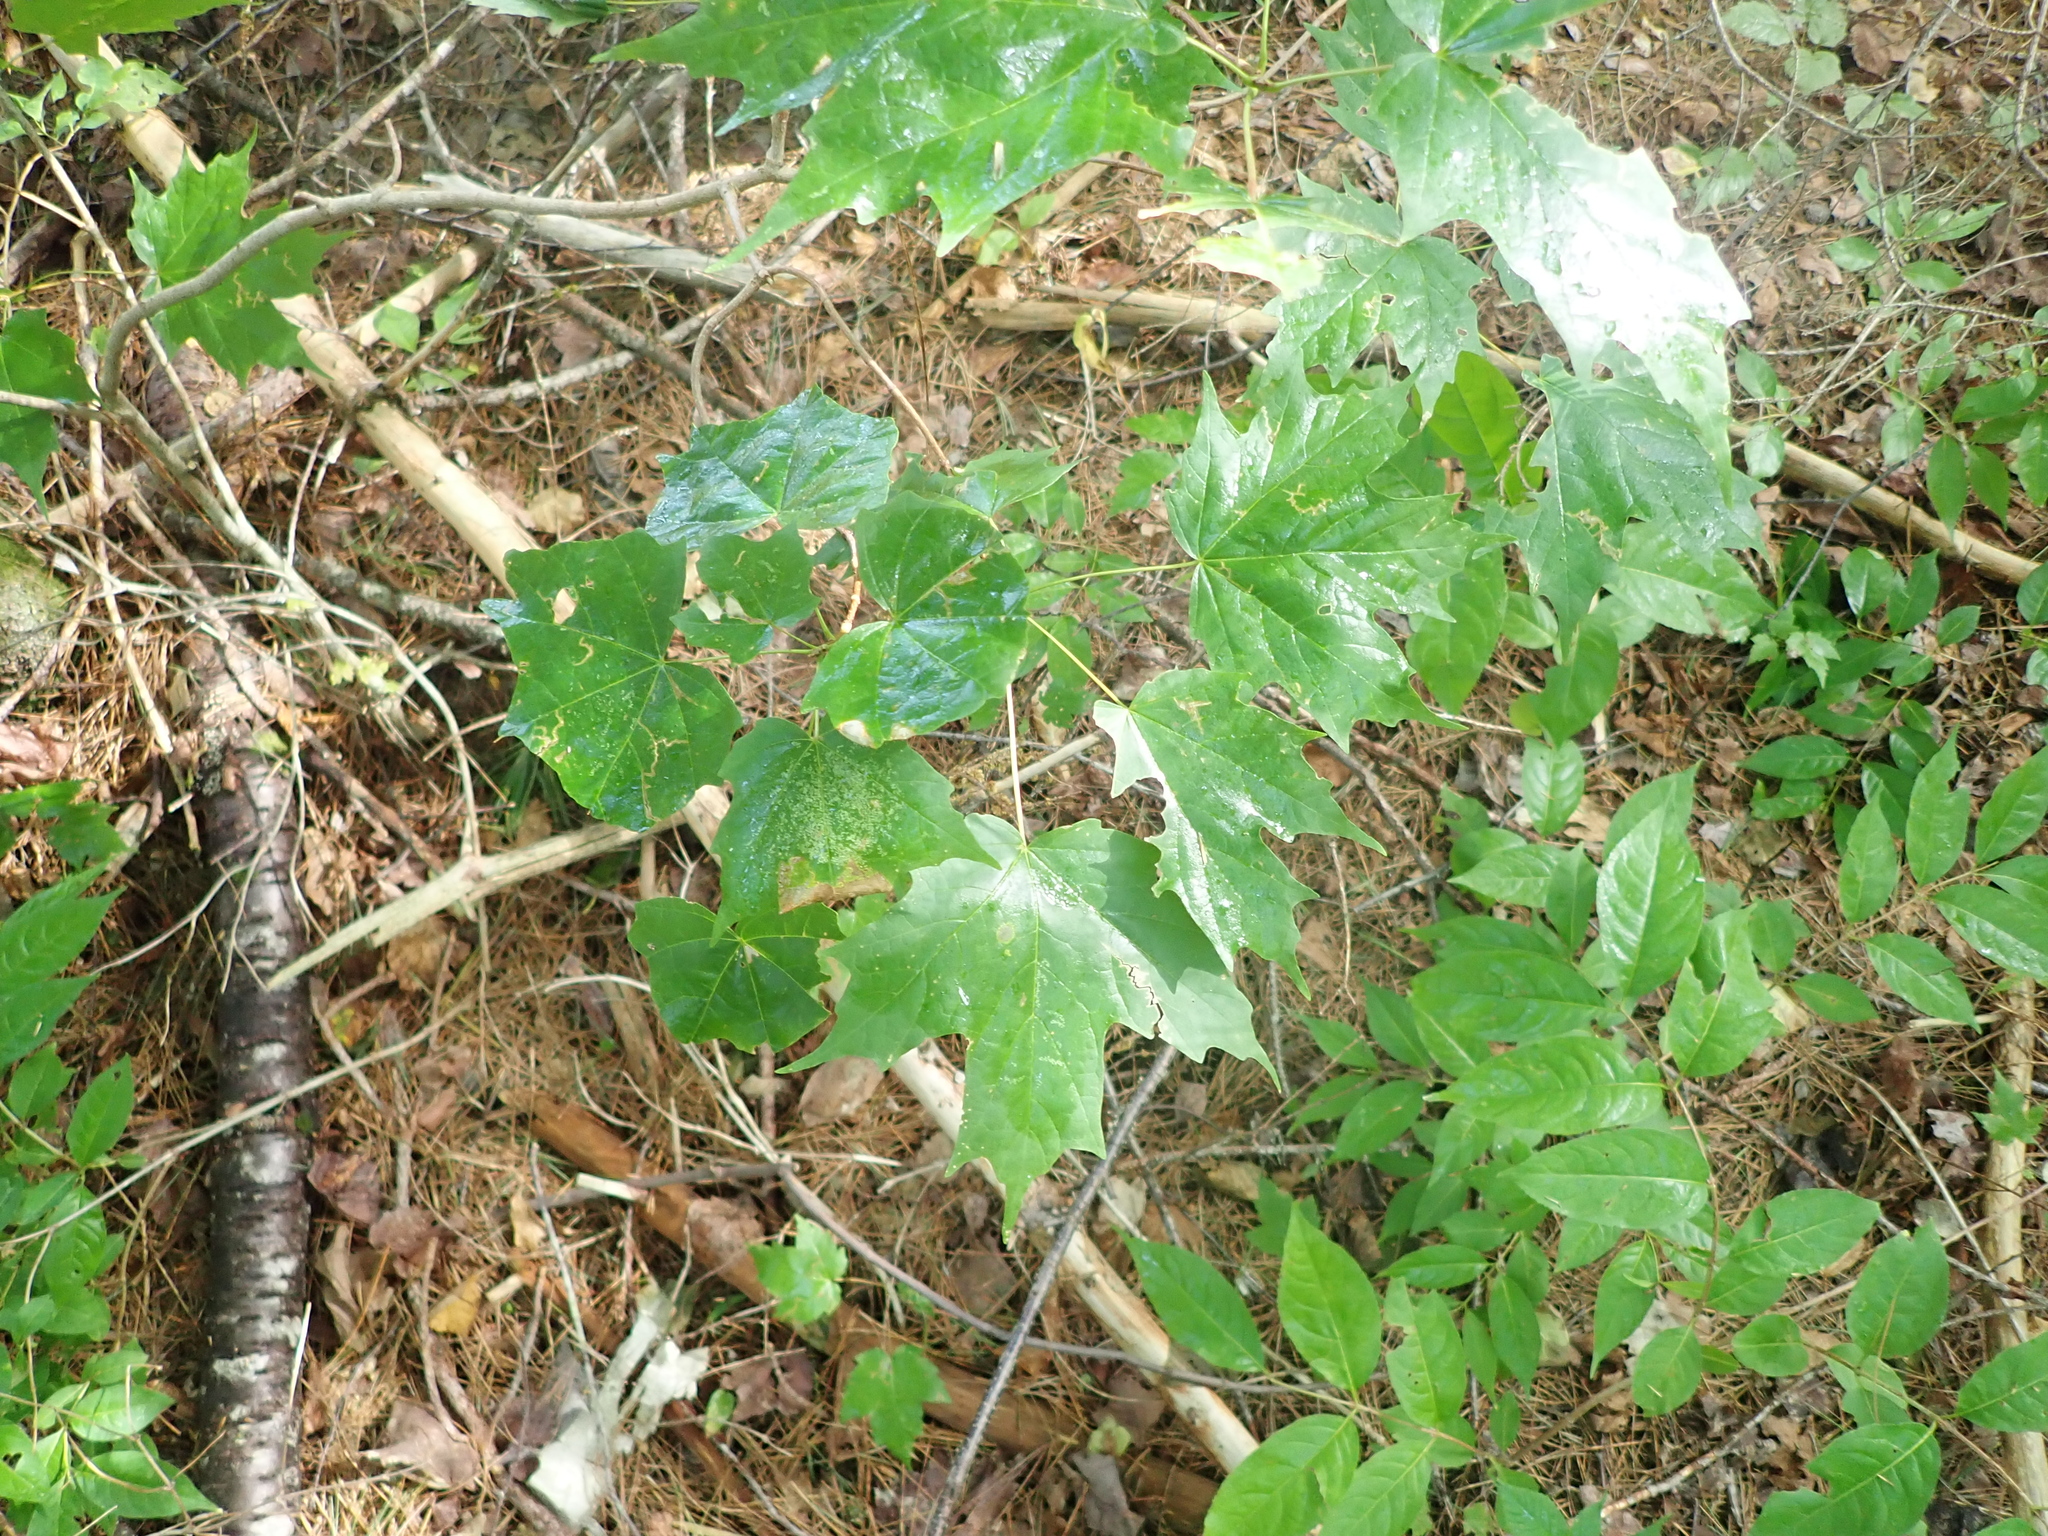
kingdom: Plantae
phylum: Tracheophyta
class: Magnoliopsida
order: Sapindales
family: Sapindaceae
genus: Acer
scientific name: Acer saccharum
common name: Sugar maple
